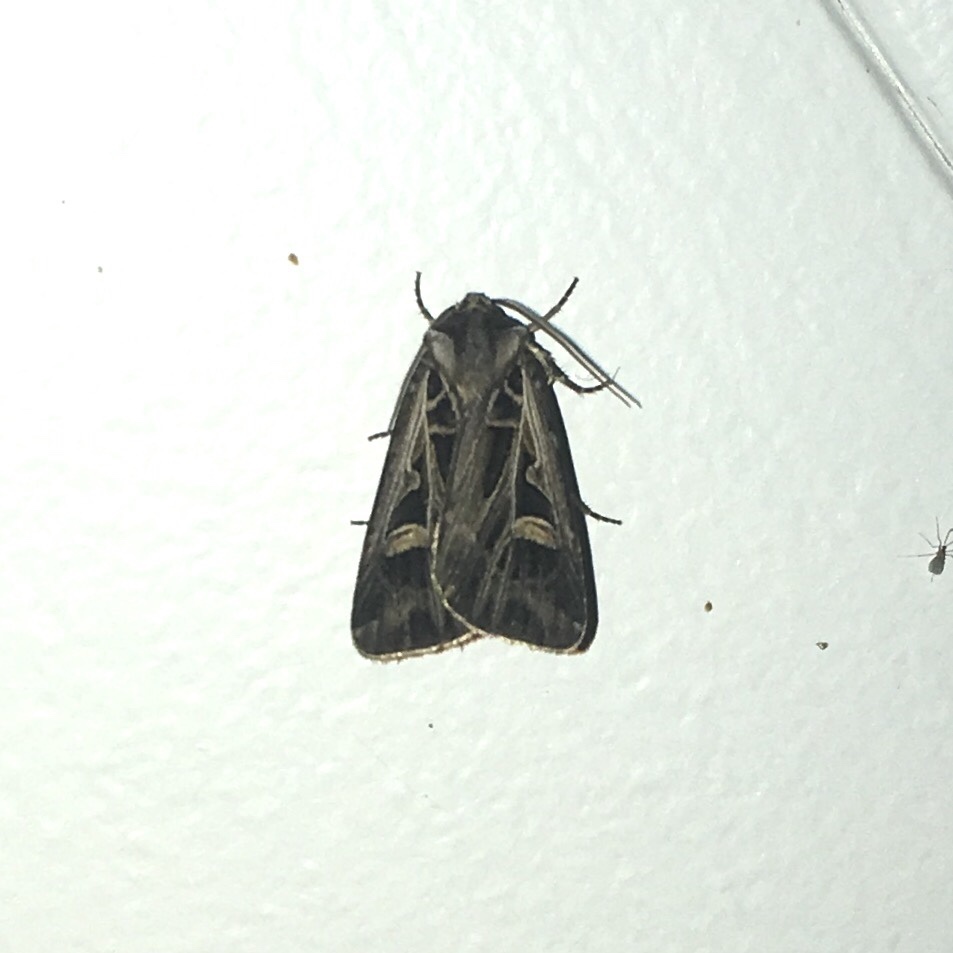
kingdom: Animalia
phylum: Arthropoda
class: Insecta
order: Lepidoptera
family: Noctuidae
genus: Feltia
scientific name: Feltia jaculifera
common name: Dingy cutworm moth
